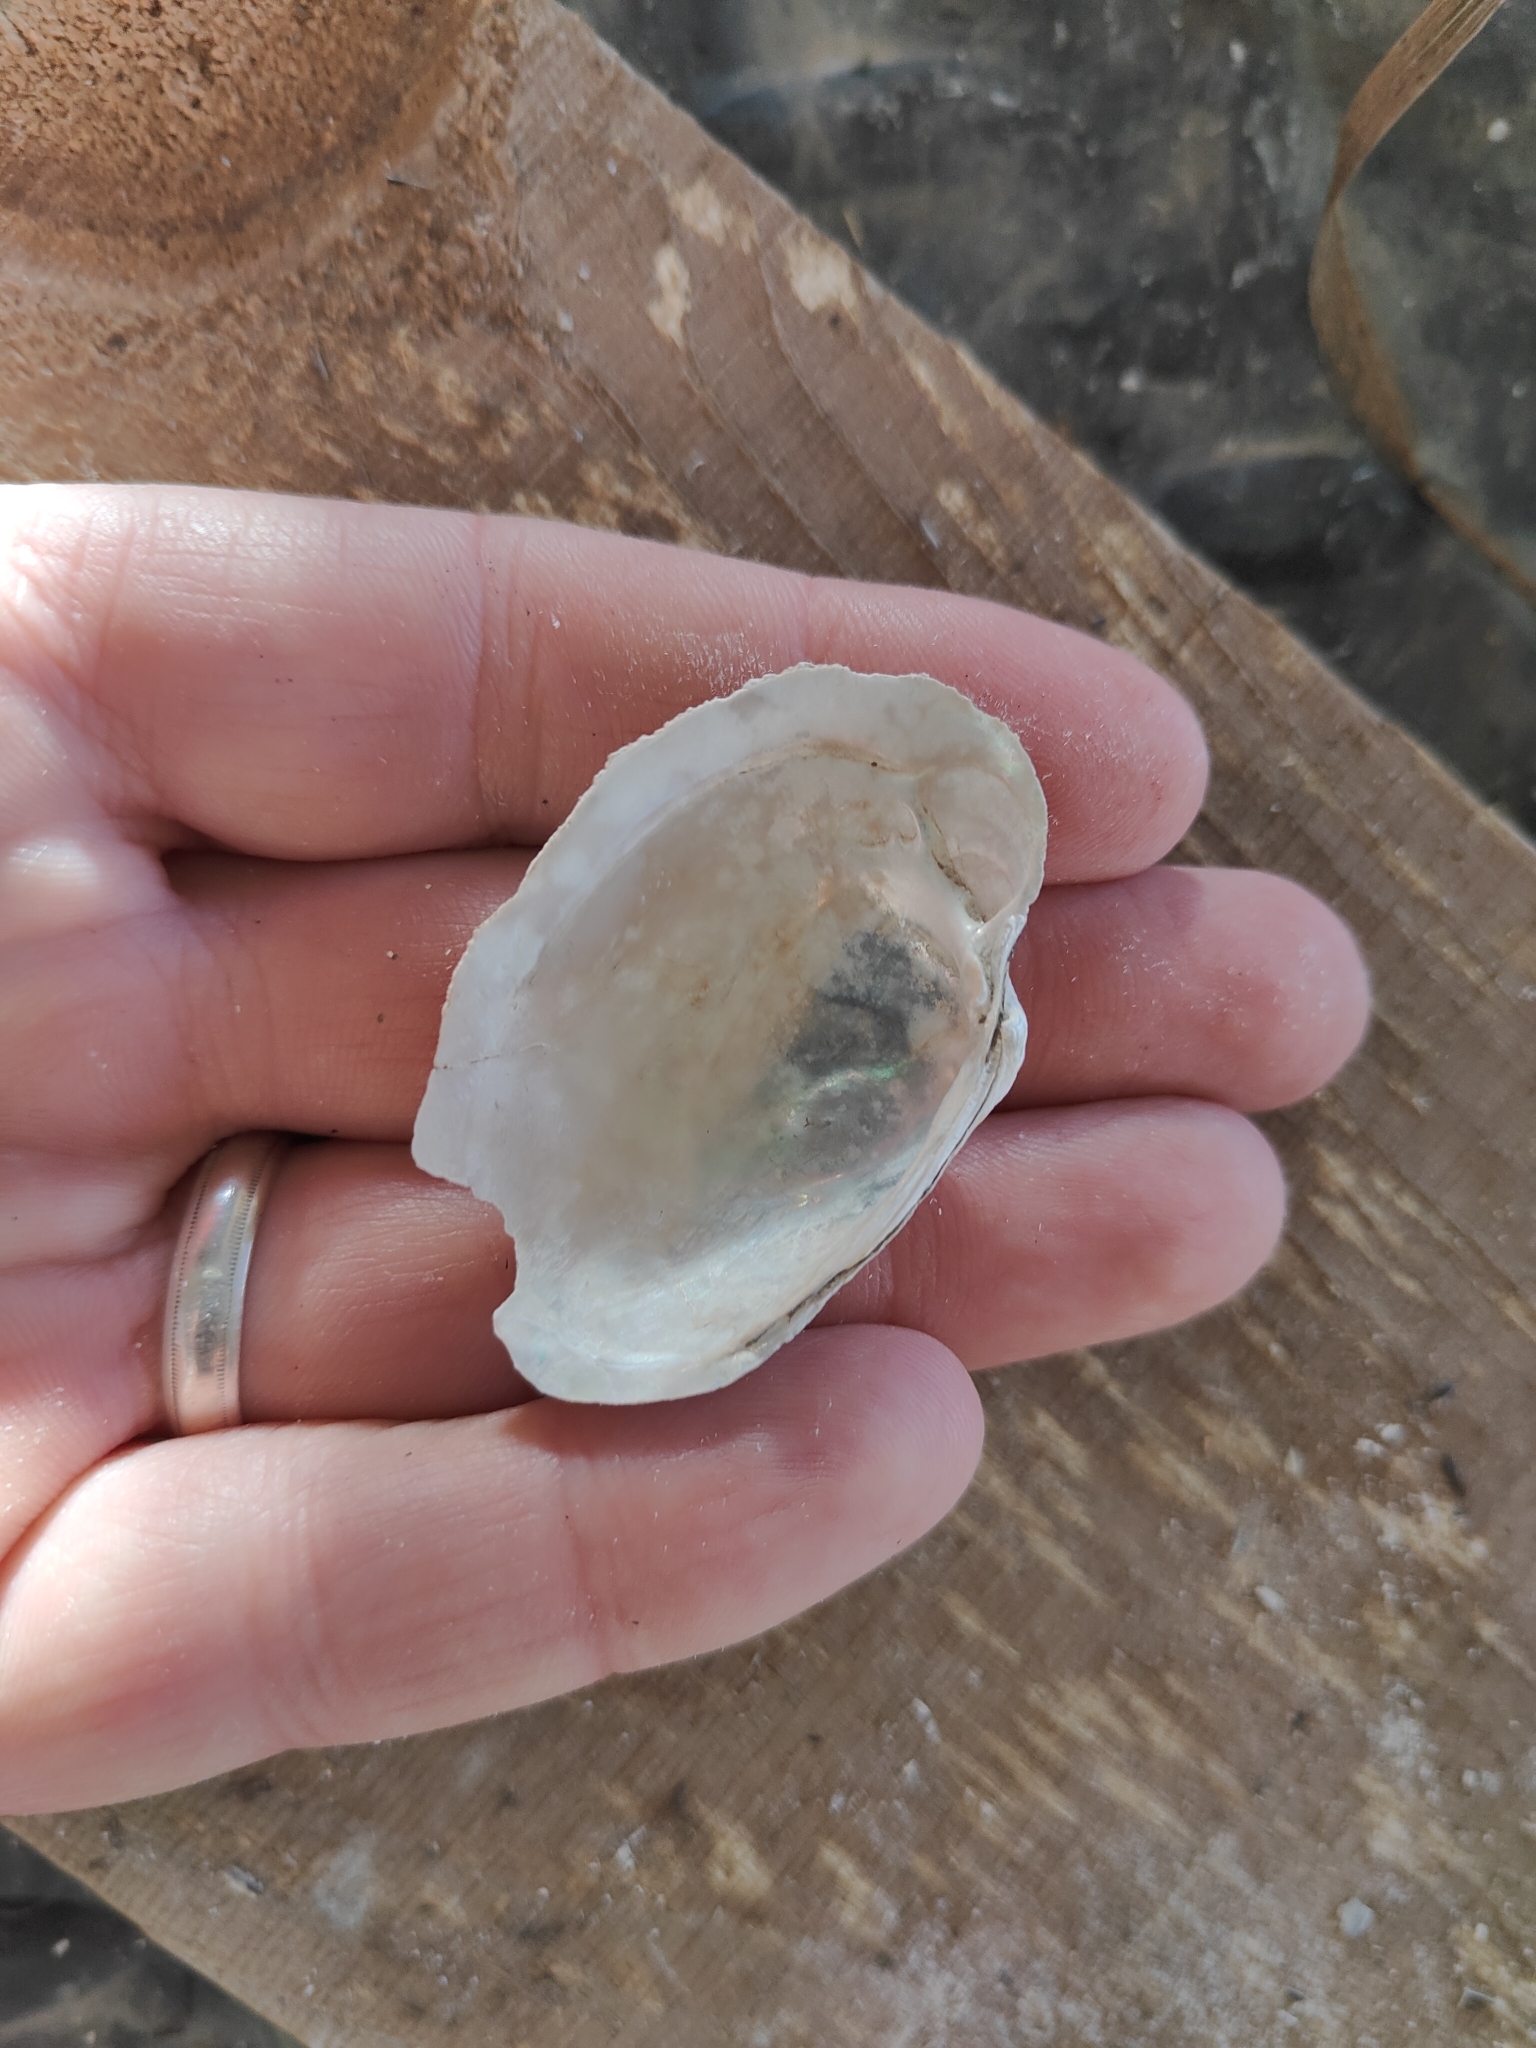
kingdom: Animalia
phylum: Mollusca
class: Bivalvia
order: Unionida
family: Unionidae
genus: Lampsilis
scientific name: Lampsilis cardium
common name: Plain pocketbook
